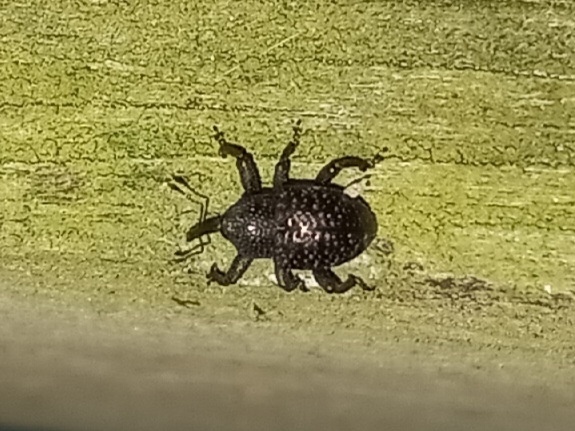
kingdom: Animalia
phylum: Arthropoda
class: Insecta
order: Coleoptera
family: Curculionidae
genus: Chalcodermus
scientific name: Chalcodermus aeneus
